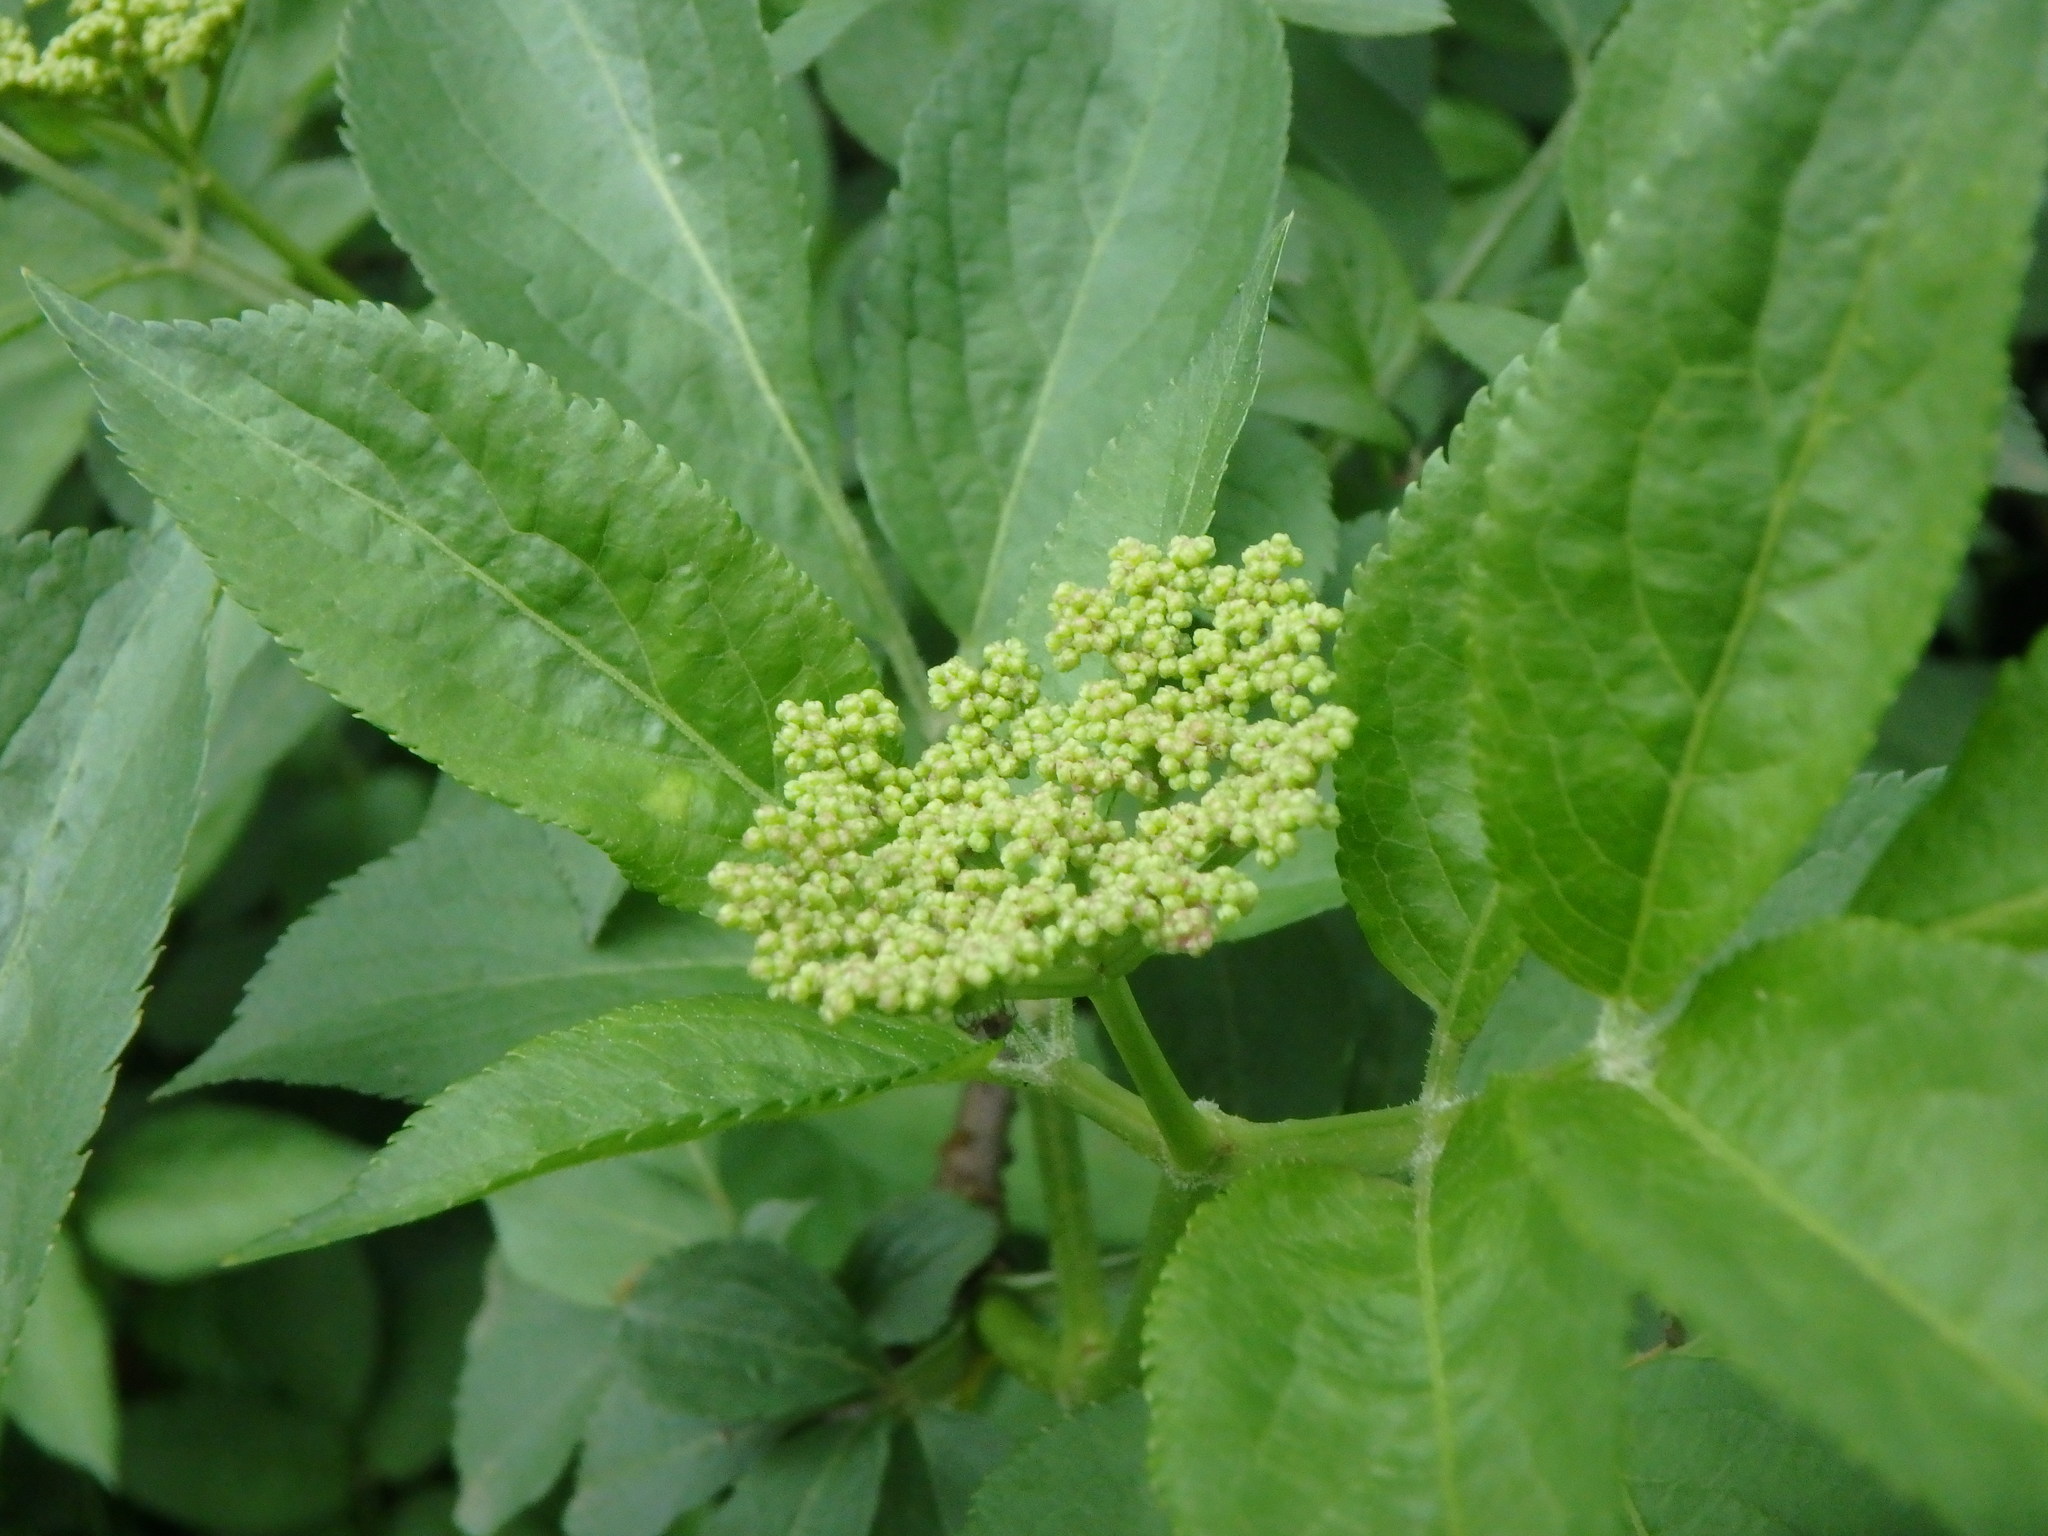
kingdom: Plantae
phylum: Tracheophyta
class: Magnoliopsida
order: Dipsacales
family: Viburnaceae
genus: Sambucus
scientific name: Sambucus nigra
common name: Elder
